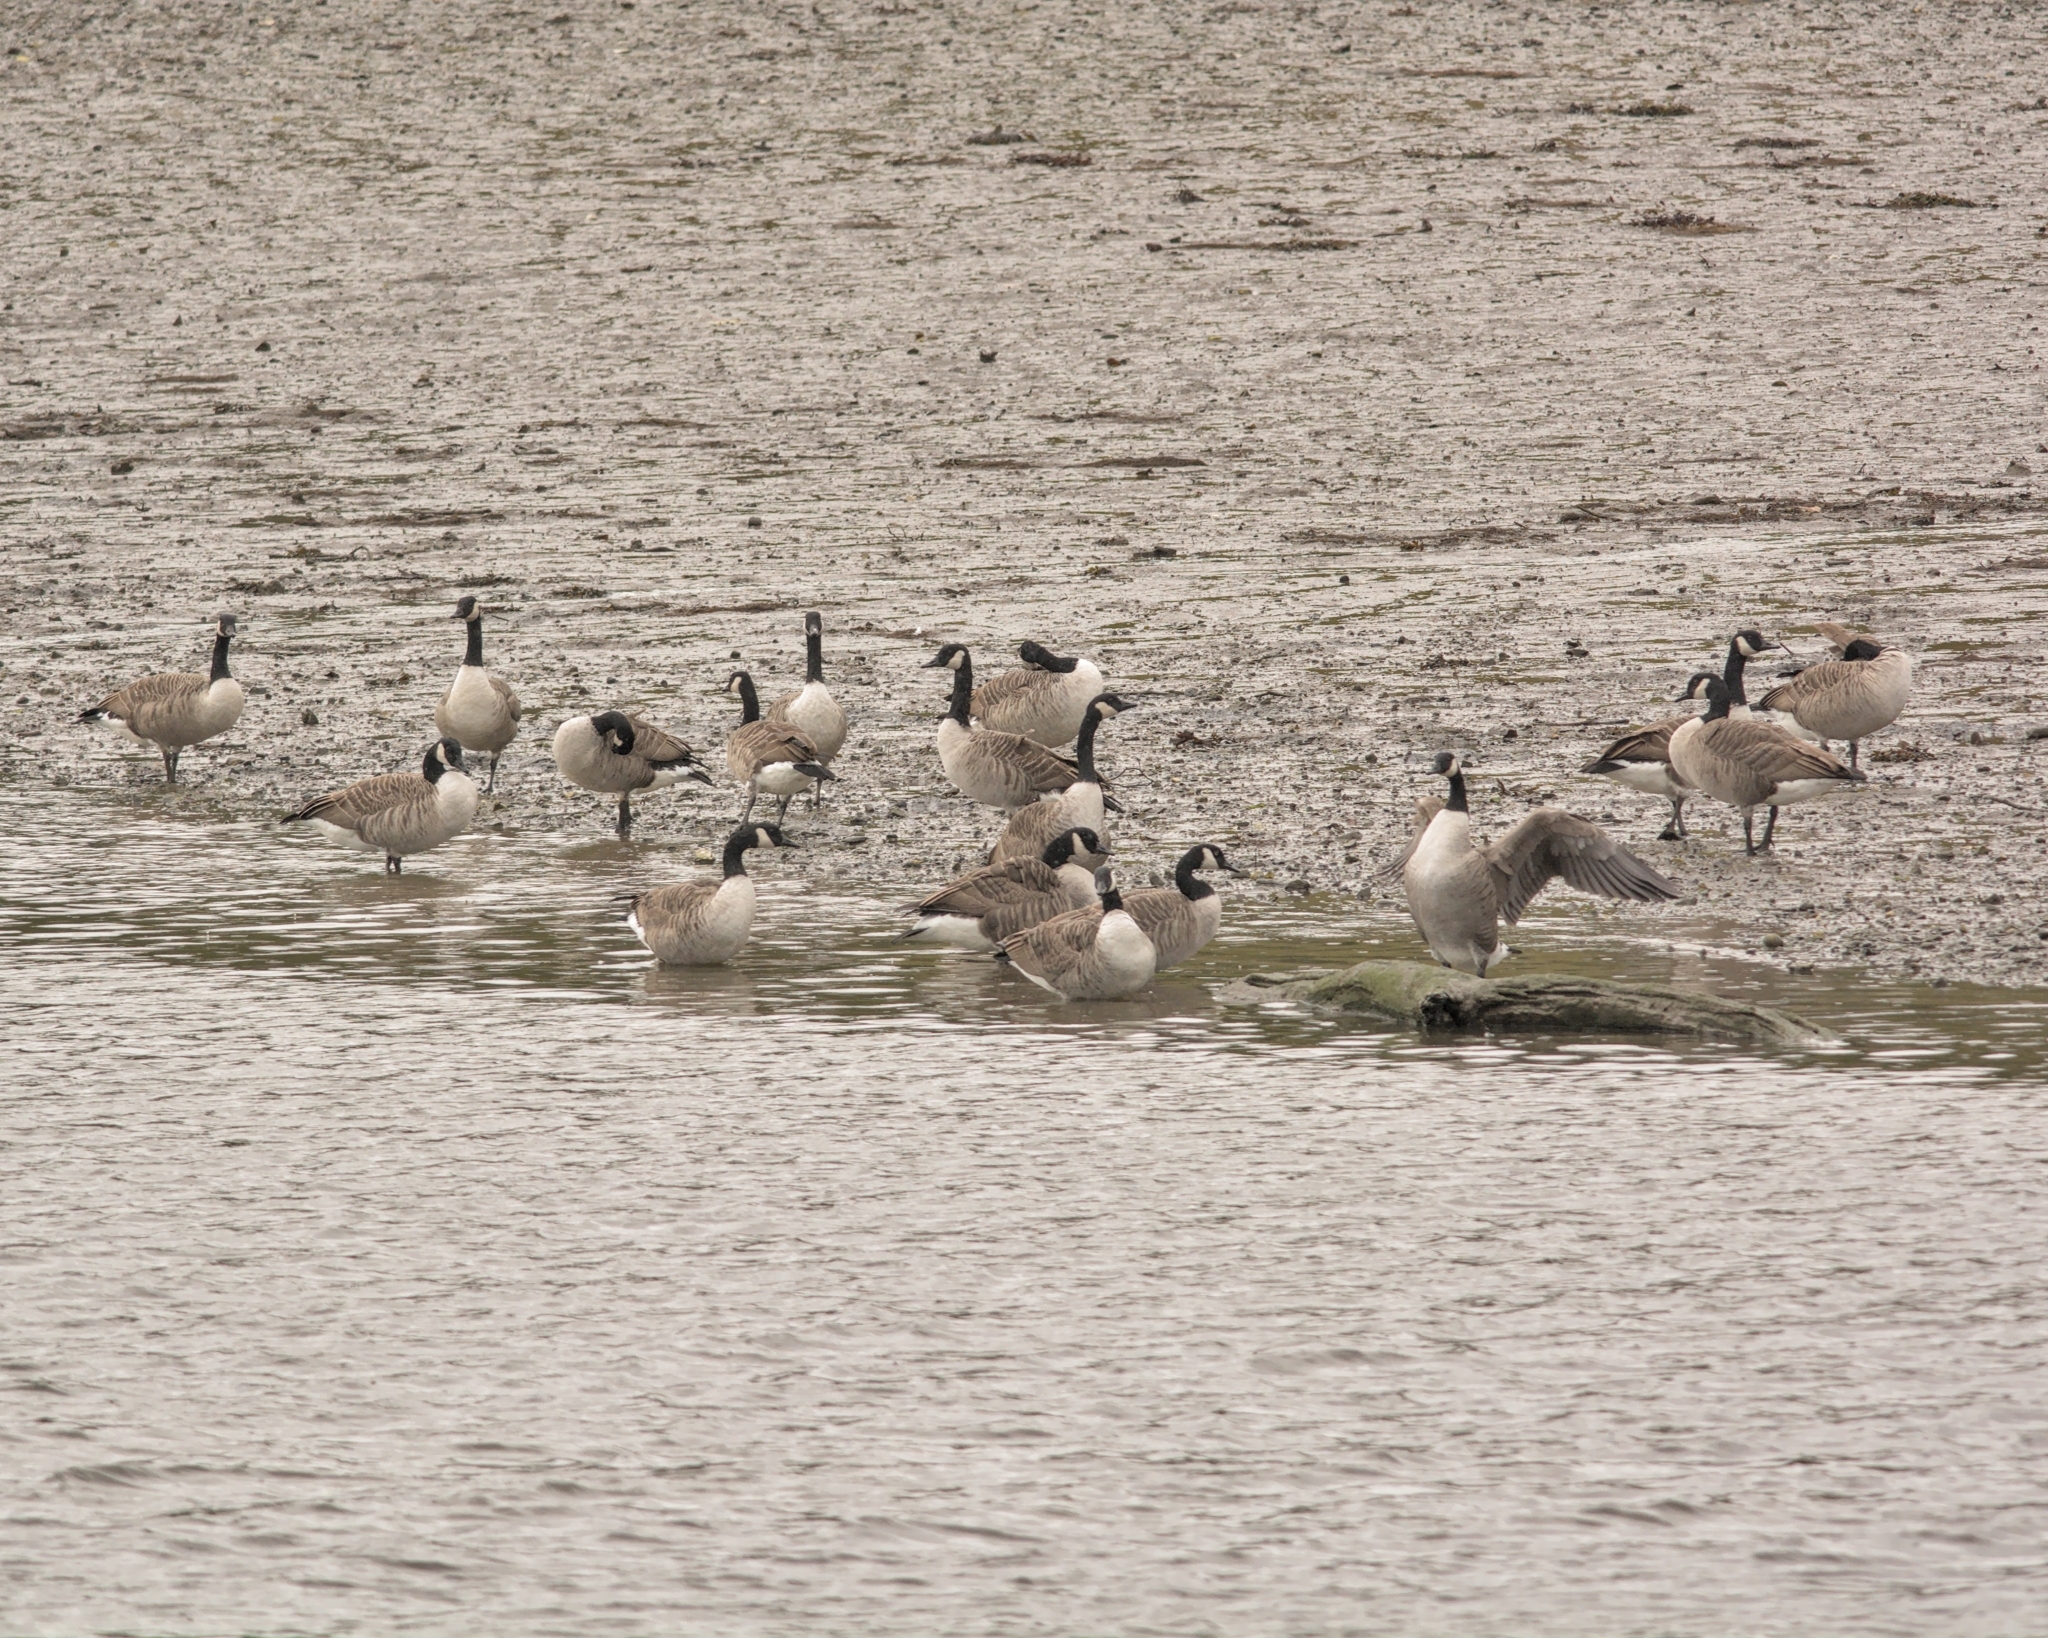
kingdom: Animalia
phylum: Chordata
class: Aves
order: Anseriformes
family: Anatidae
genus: Branta
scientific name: Branta canadensis
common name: Canada goose
